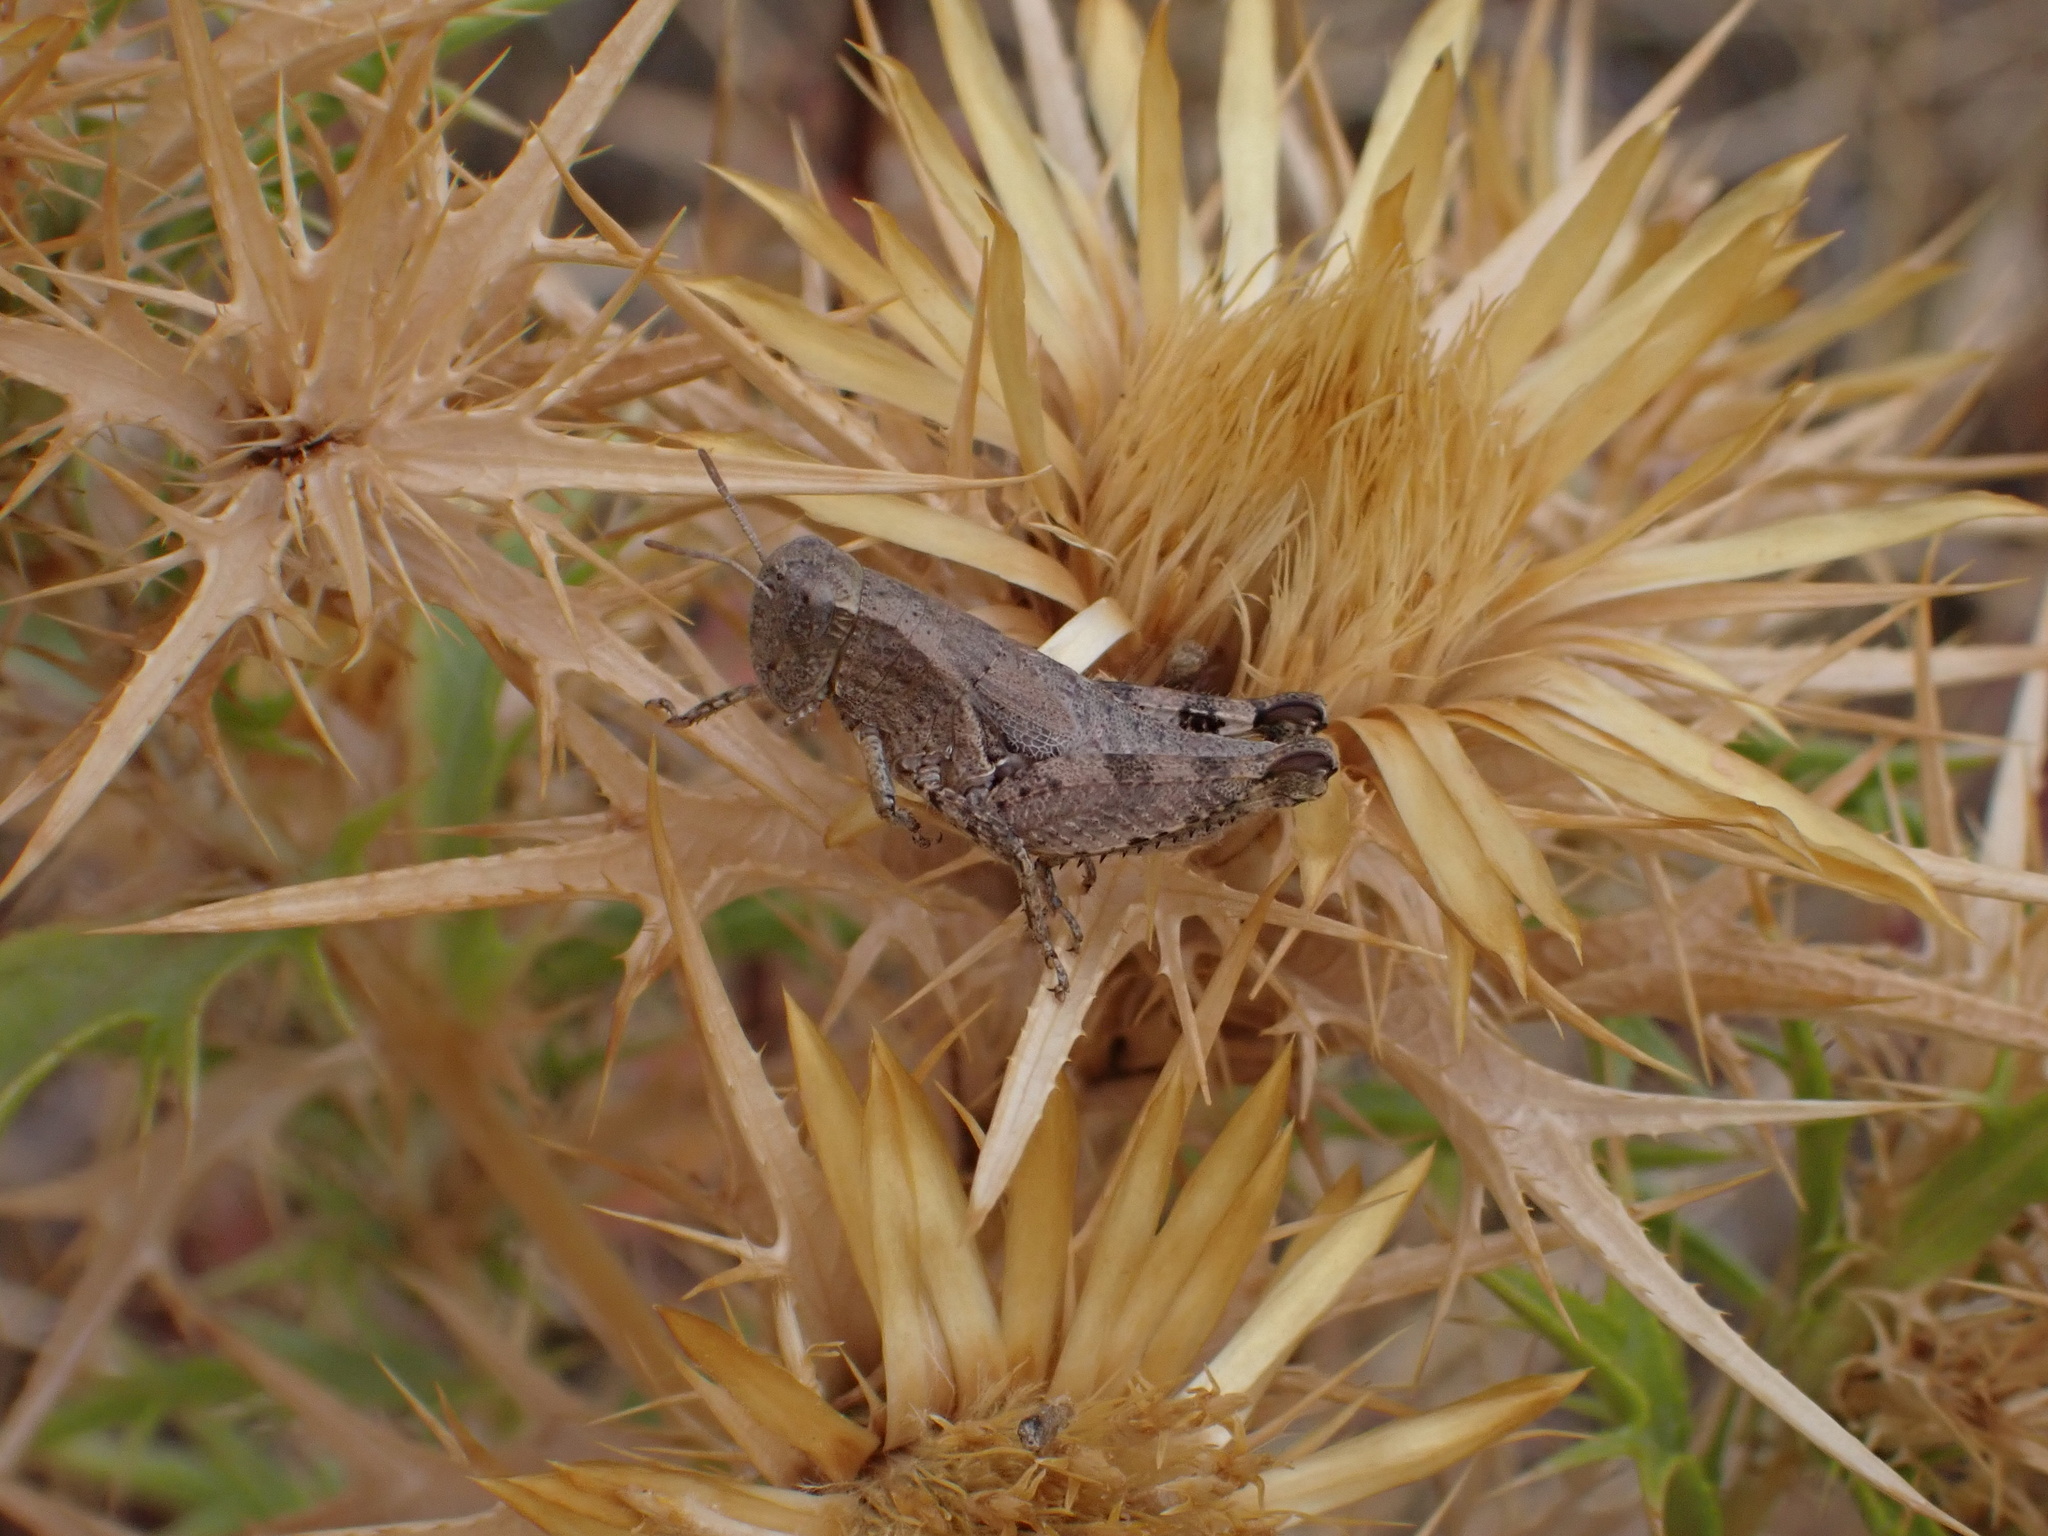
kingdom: Animalia
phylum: Arthropoda
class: Insecta
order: Orthoptera
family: Acrididae
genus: Pezotettix
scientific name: Pezotettix giornae
